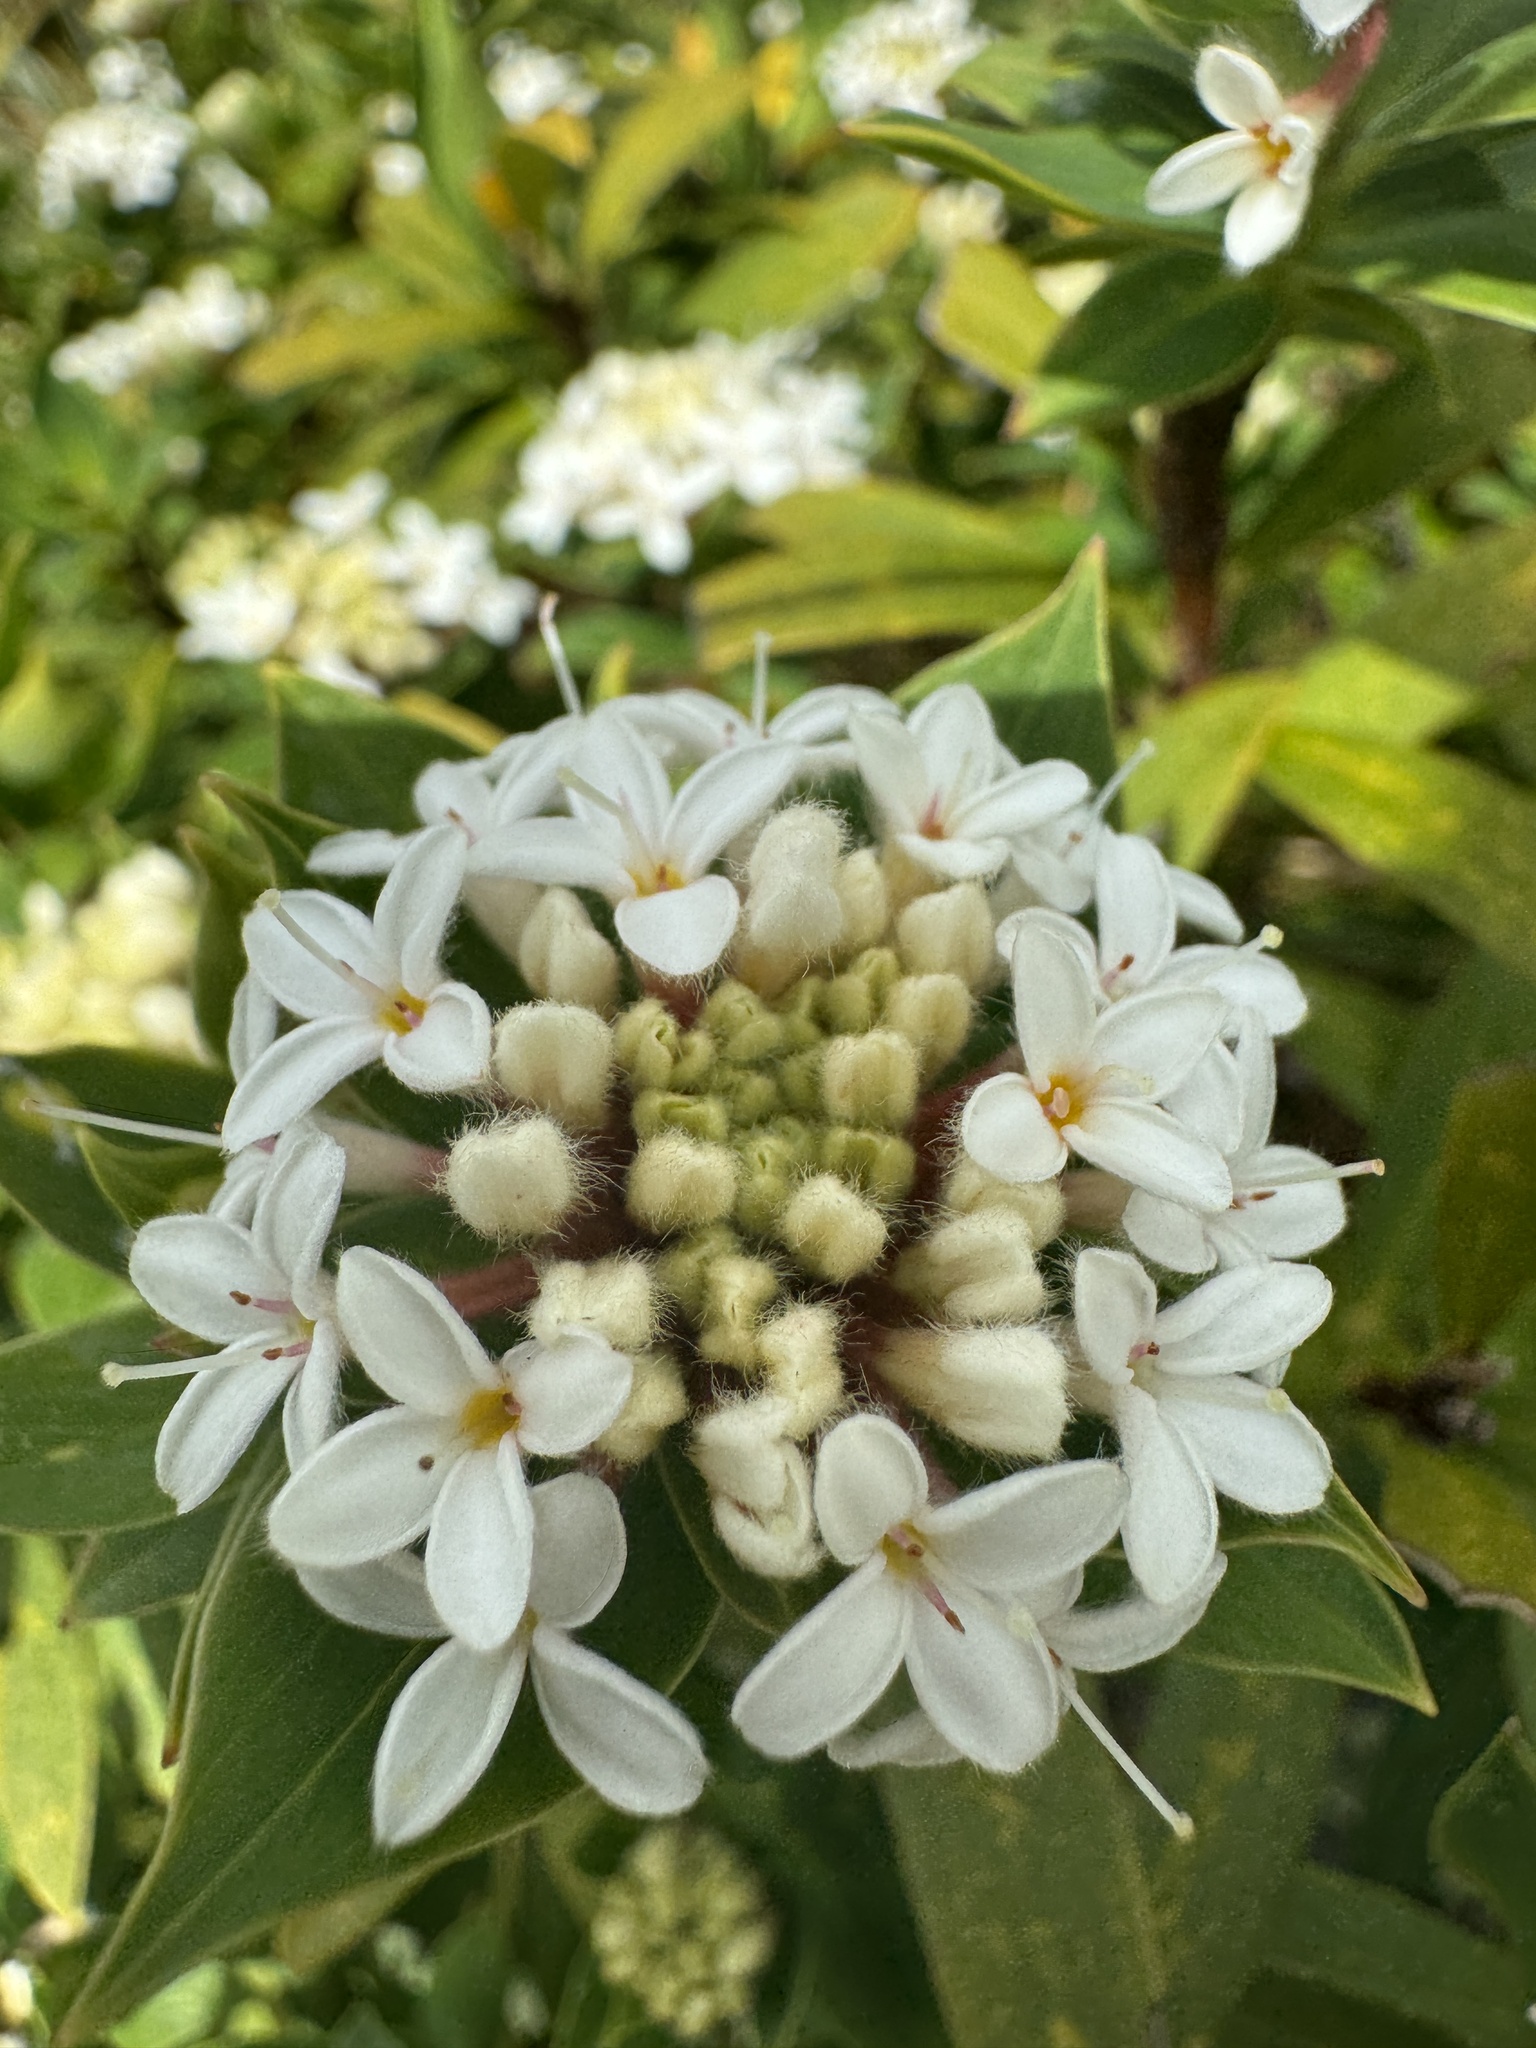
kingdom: Plantae
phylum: Tracheophyta
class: Magnoliopsida
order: Malvales
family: Thymelaeaceae
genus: Pimelea
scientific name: Pimelea longifolia
